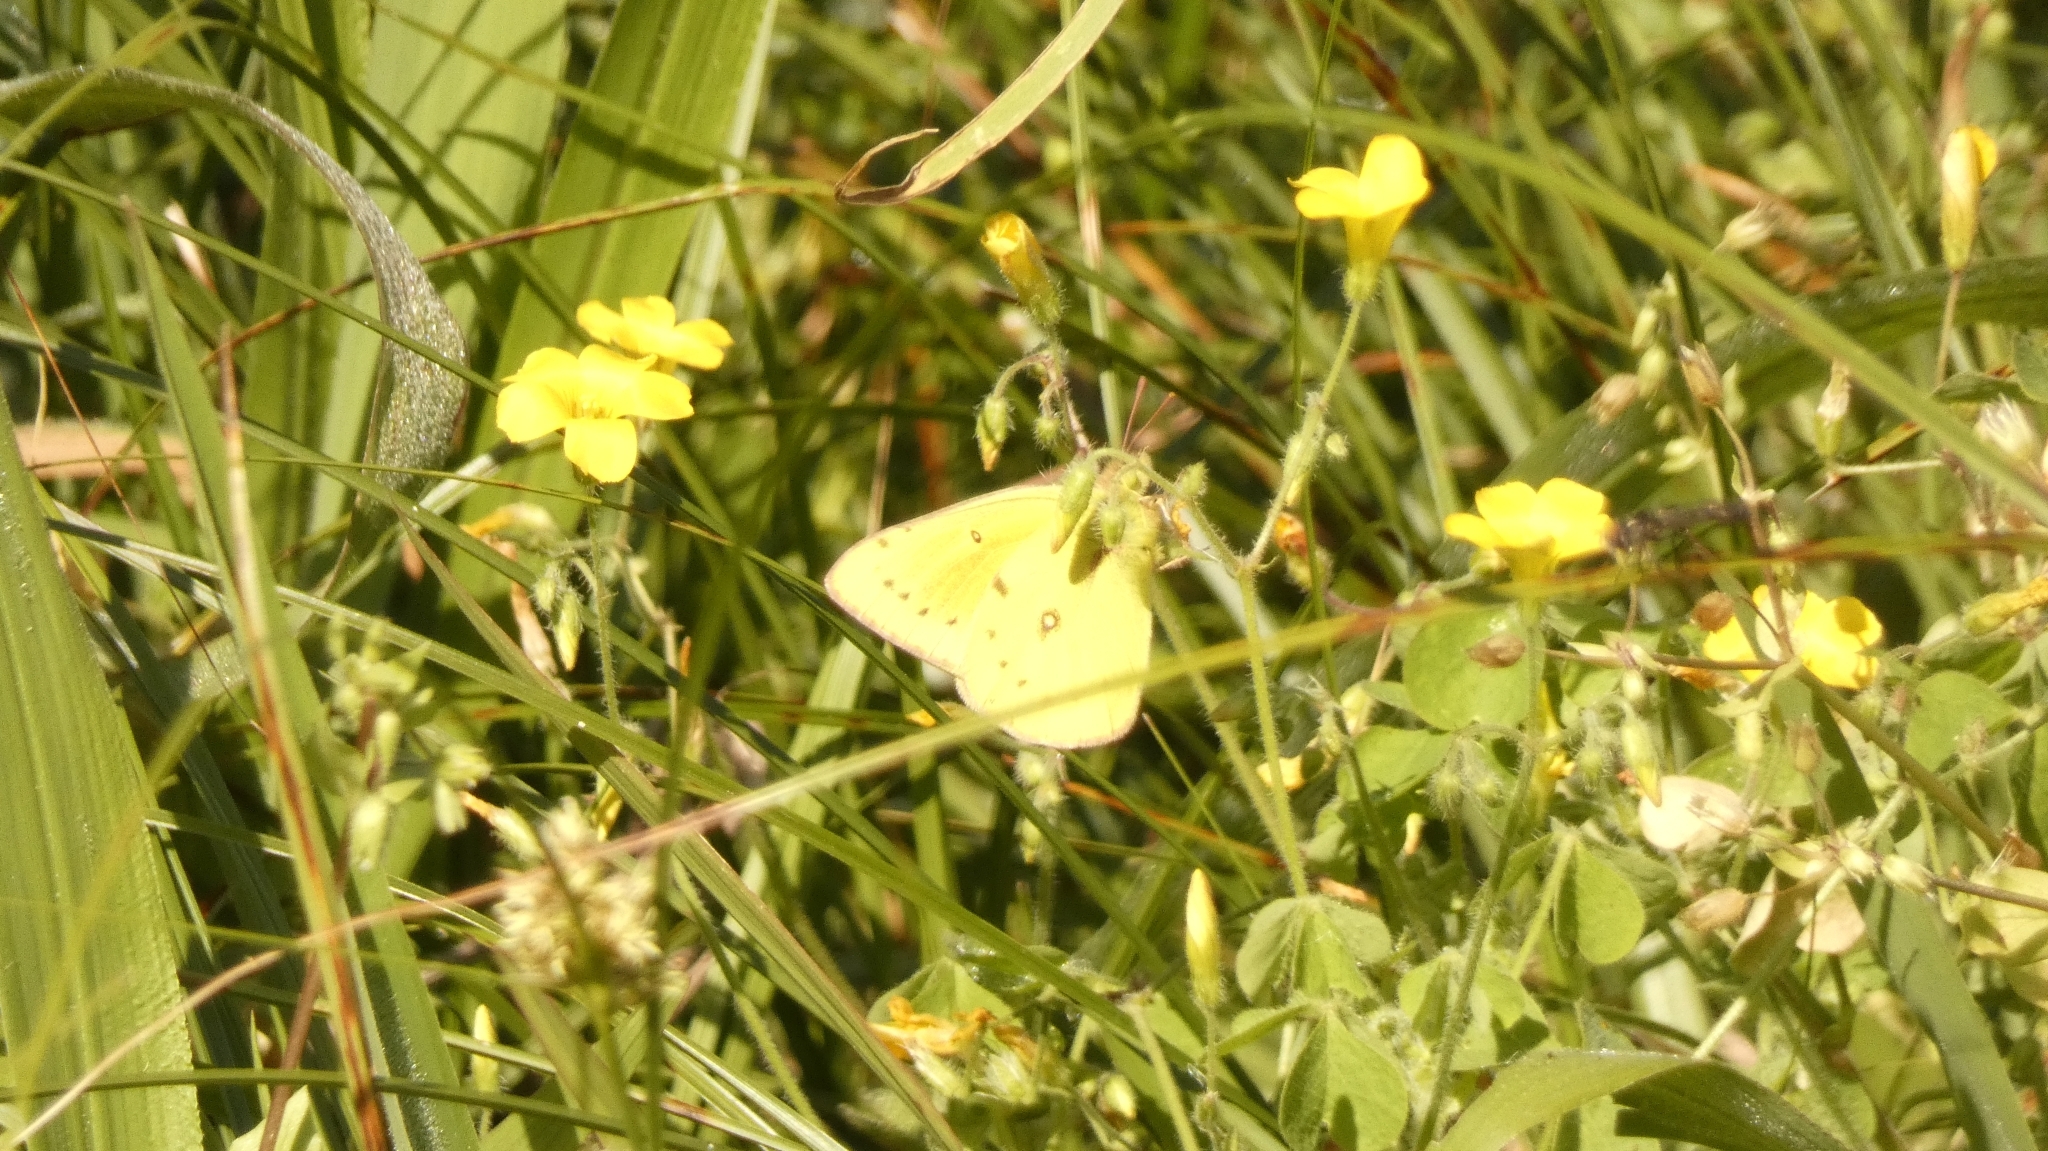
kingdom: Animalia
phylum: Arthropoda
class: Insecta
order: Lepidoptera
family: Pieridae
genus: Colias
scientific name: Colias lesbia
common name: Lesbia clouded yellow
